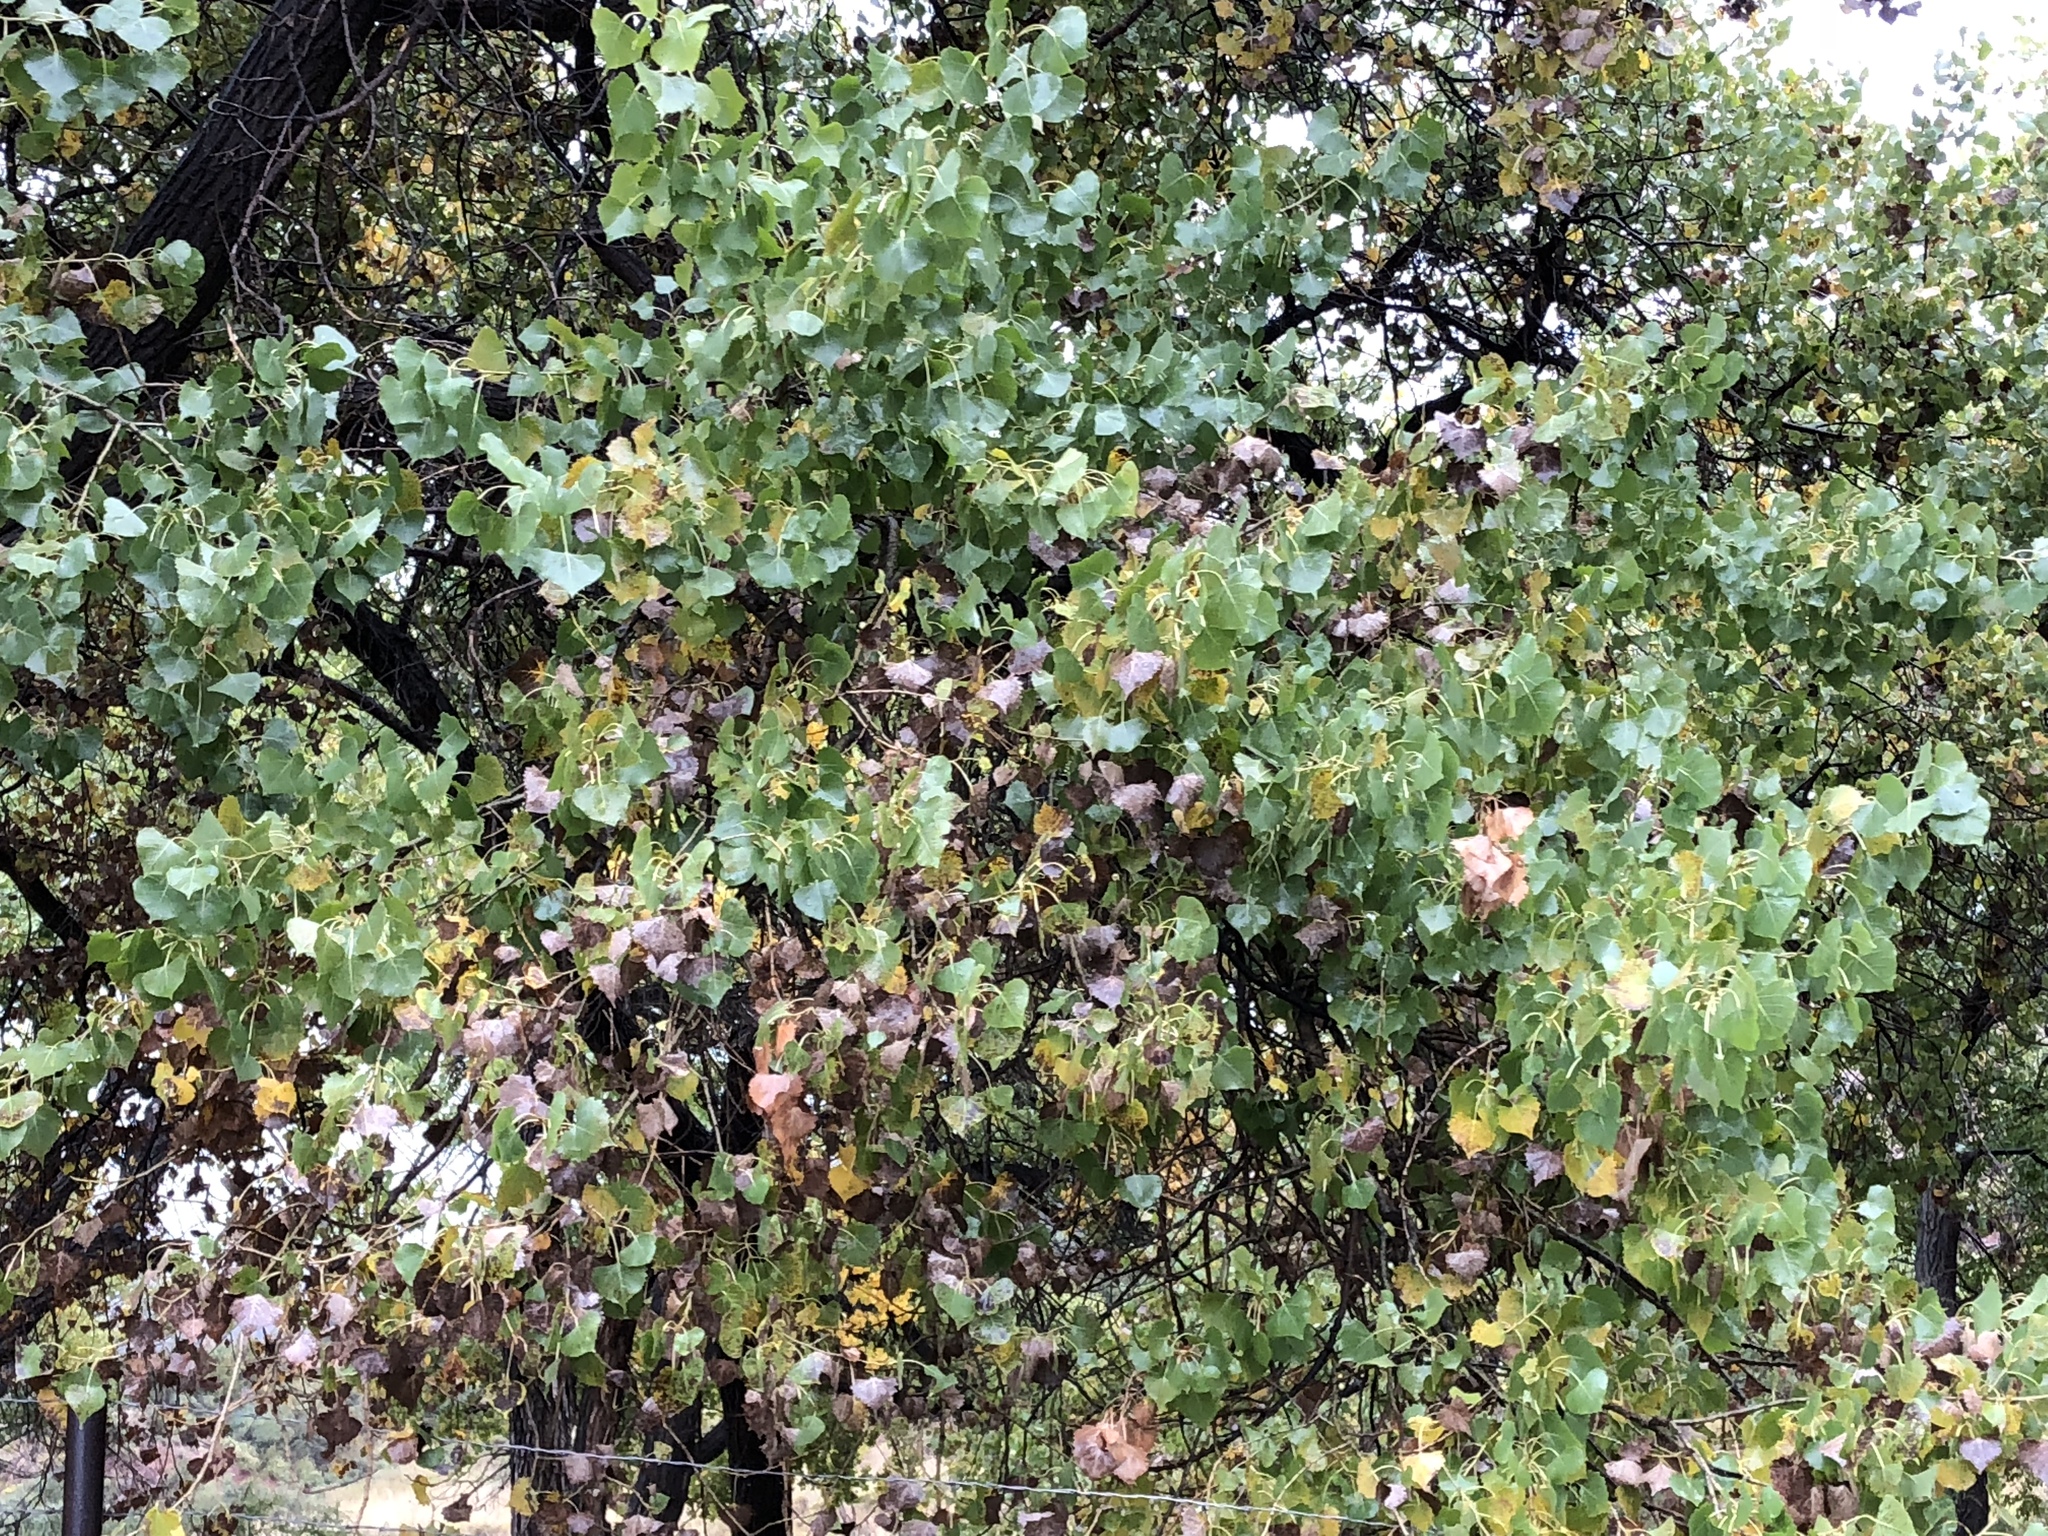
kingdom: Plantae
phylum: Tracheophyta
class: Magnoliopsida
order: Malpighiales
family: Salicaceae
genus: Populus
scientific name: Populus fremontii
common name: Fremont's cottonwood
